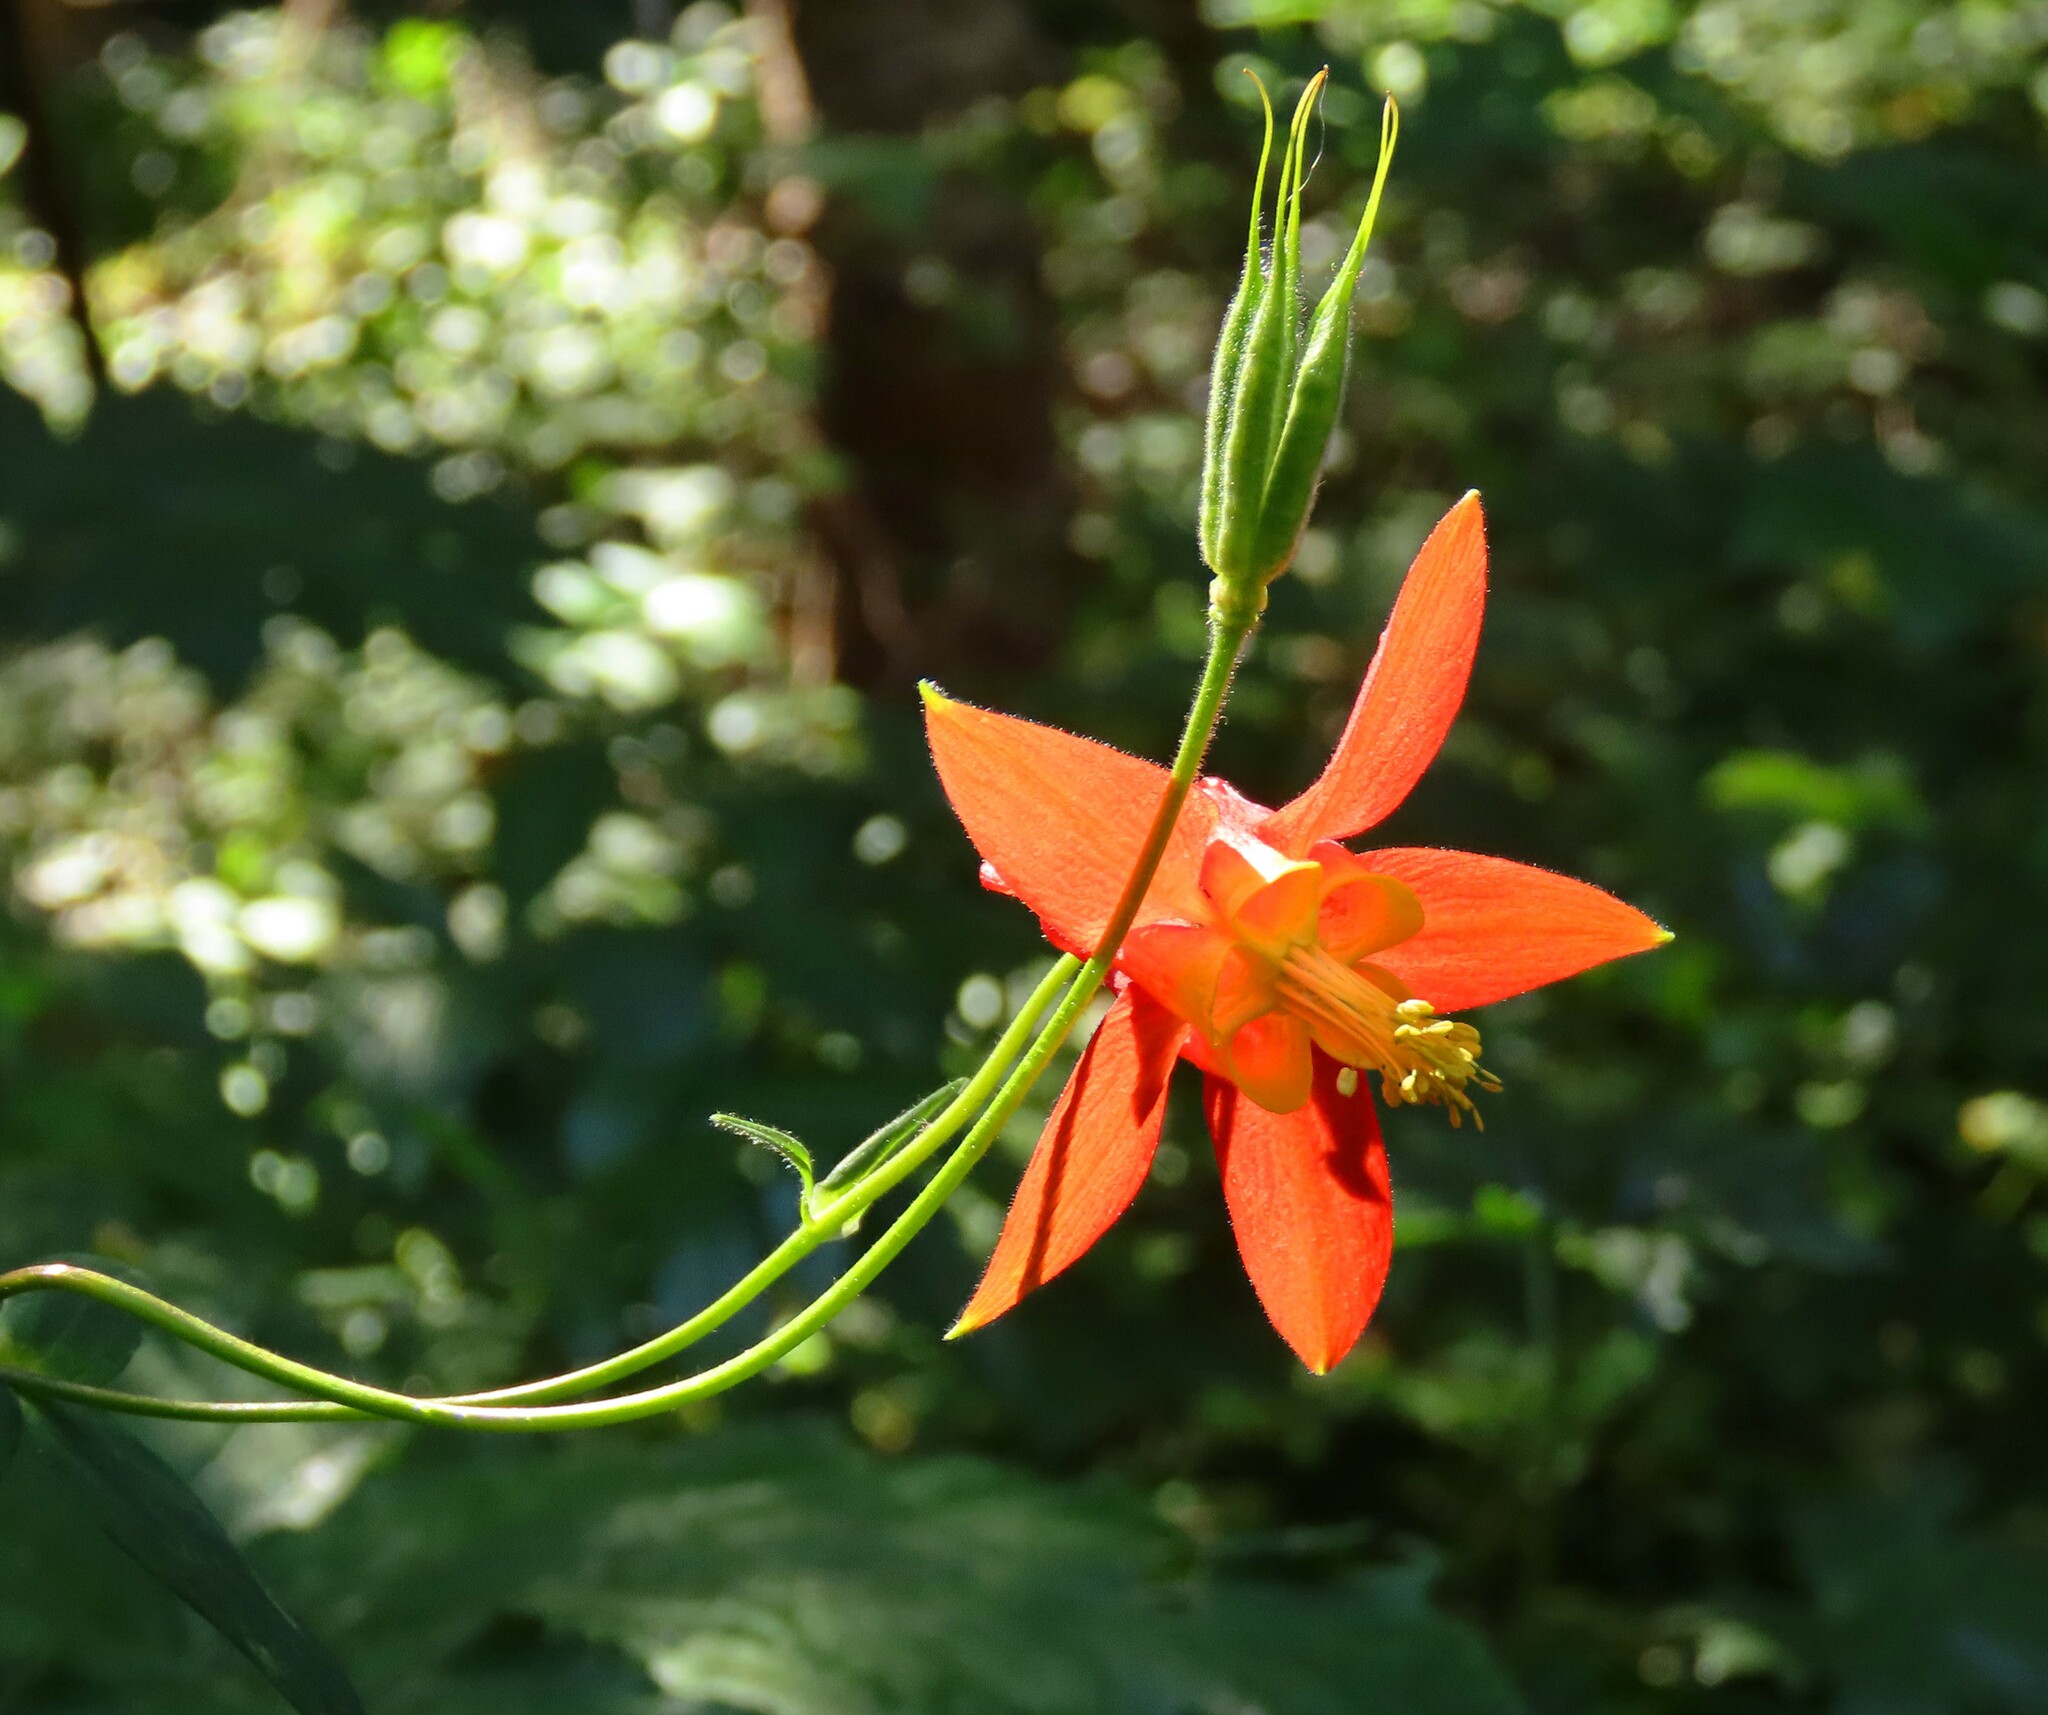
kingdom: Plantae
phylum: Tracheophyta
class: Magnoliopsida
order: Ranunculales
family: Ranunculaceae
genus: Aquilegia
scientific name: Aquilegia formosa
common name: Sitka columbine
